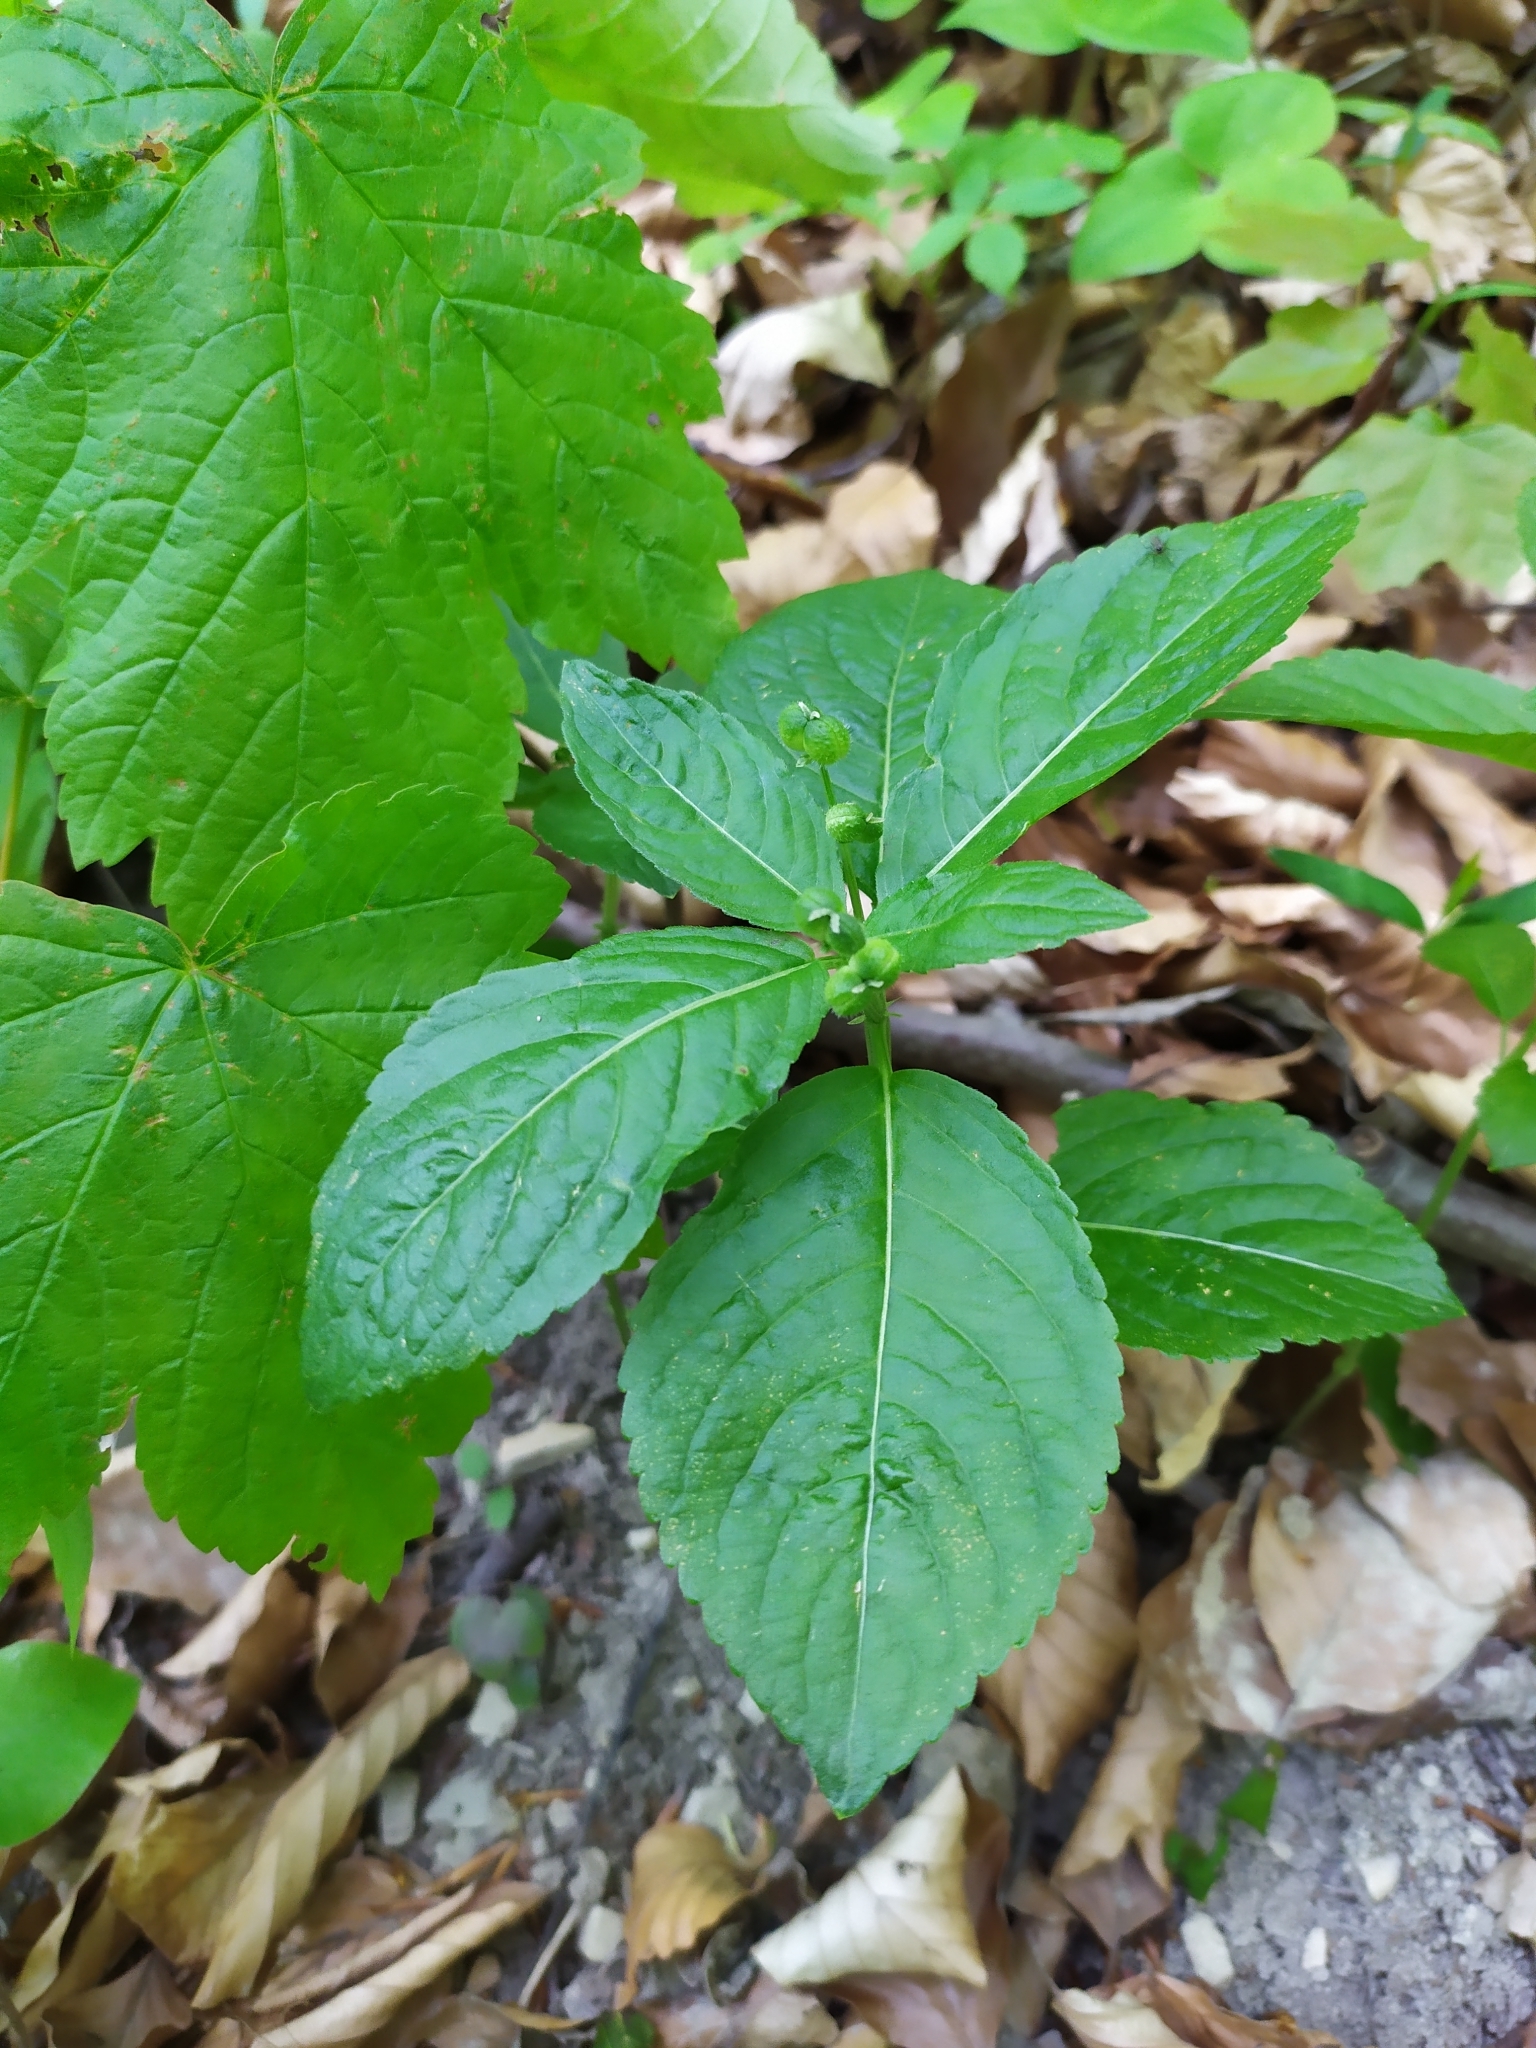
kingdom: Plantae
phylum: Tracheophyta
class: Magnoliopsida
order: Malpighiales
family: Euphorbiaceae
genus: Mercurialis
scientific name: Mercurialis perennis
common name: Dog mercury
